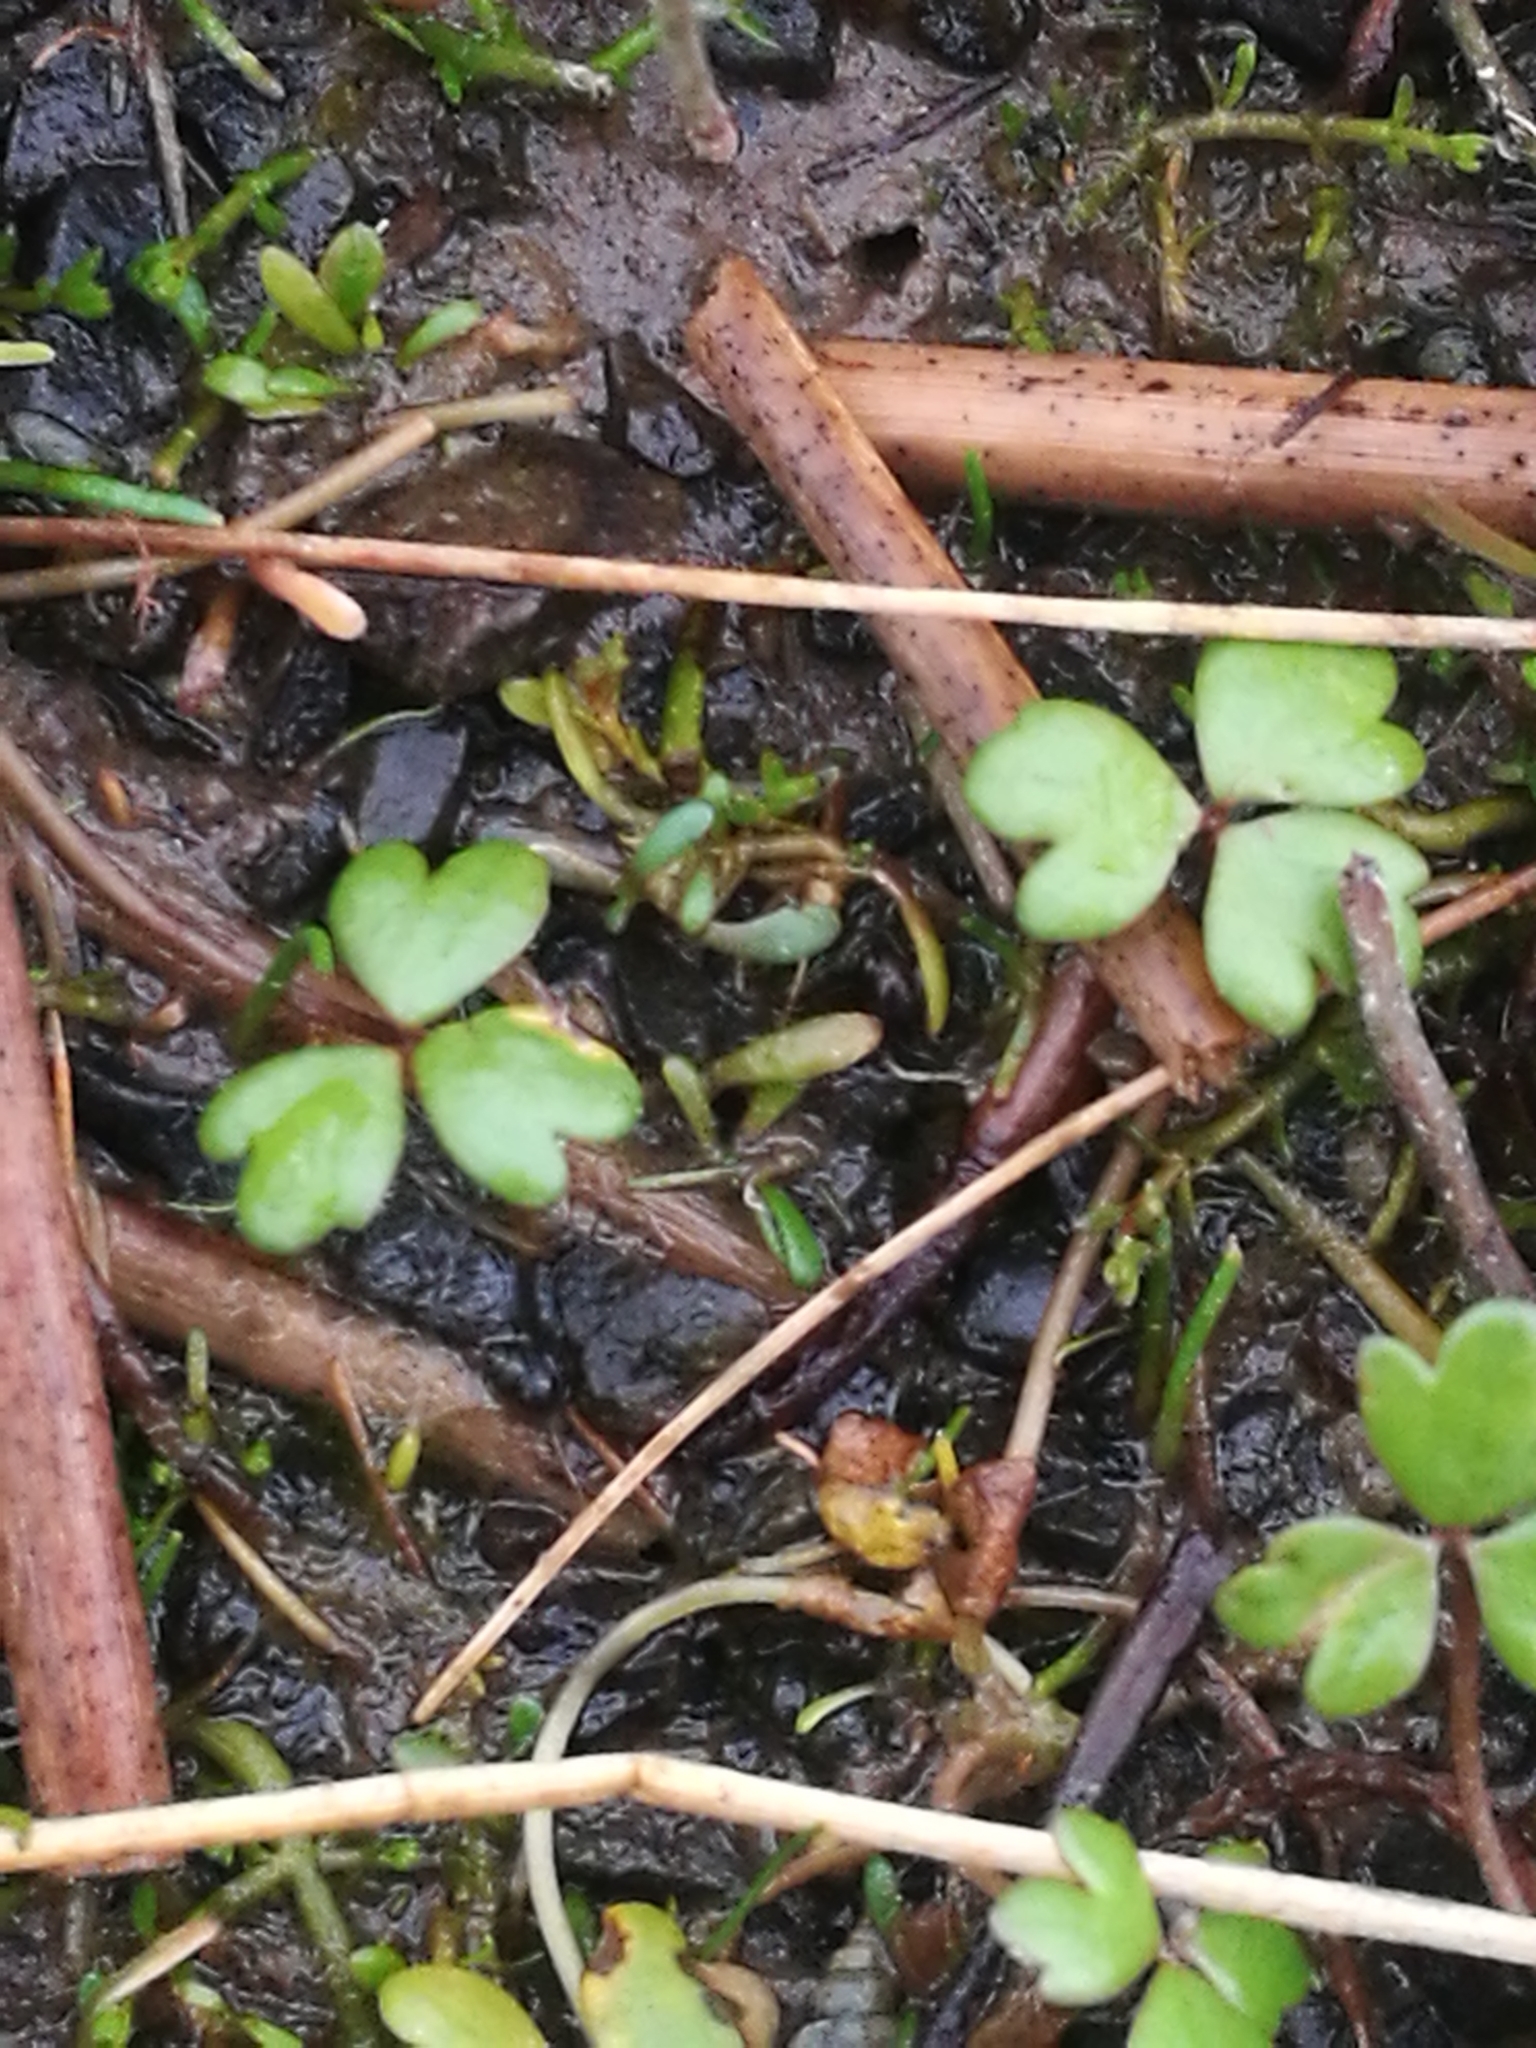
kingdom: Plantae
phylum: Tracheophyta
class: Magnoliopsida
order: Apiales
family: Araliaceae
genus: Hydrocotyle
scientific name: Hydrocotyle sulcata
